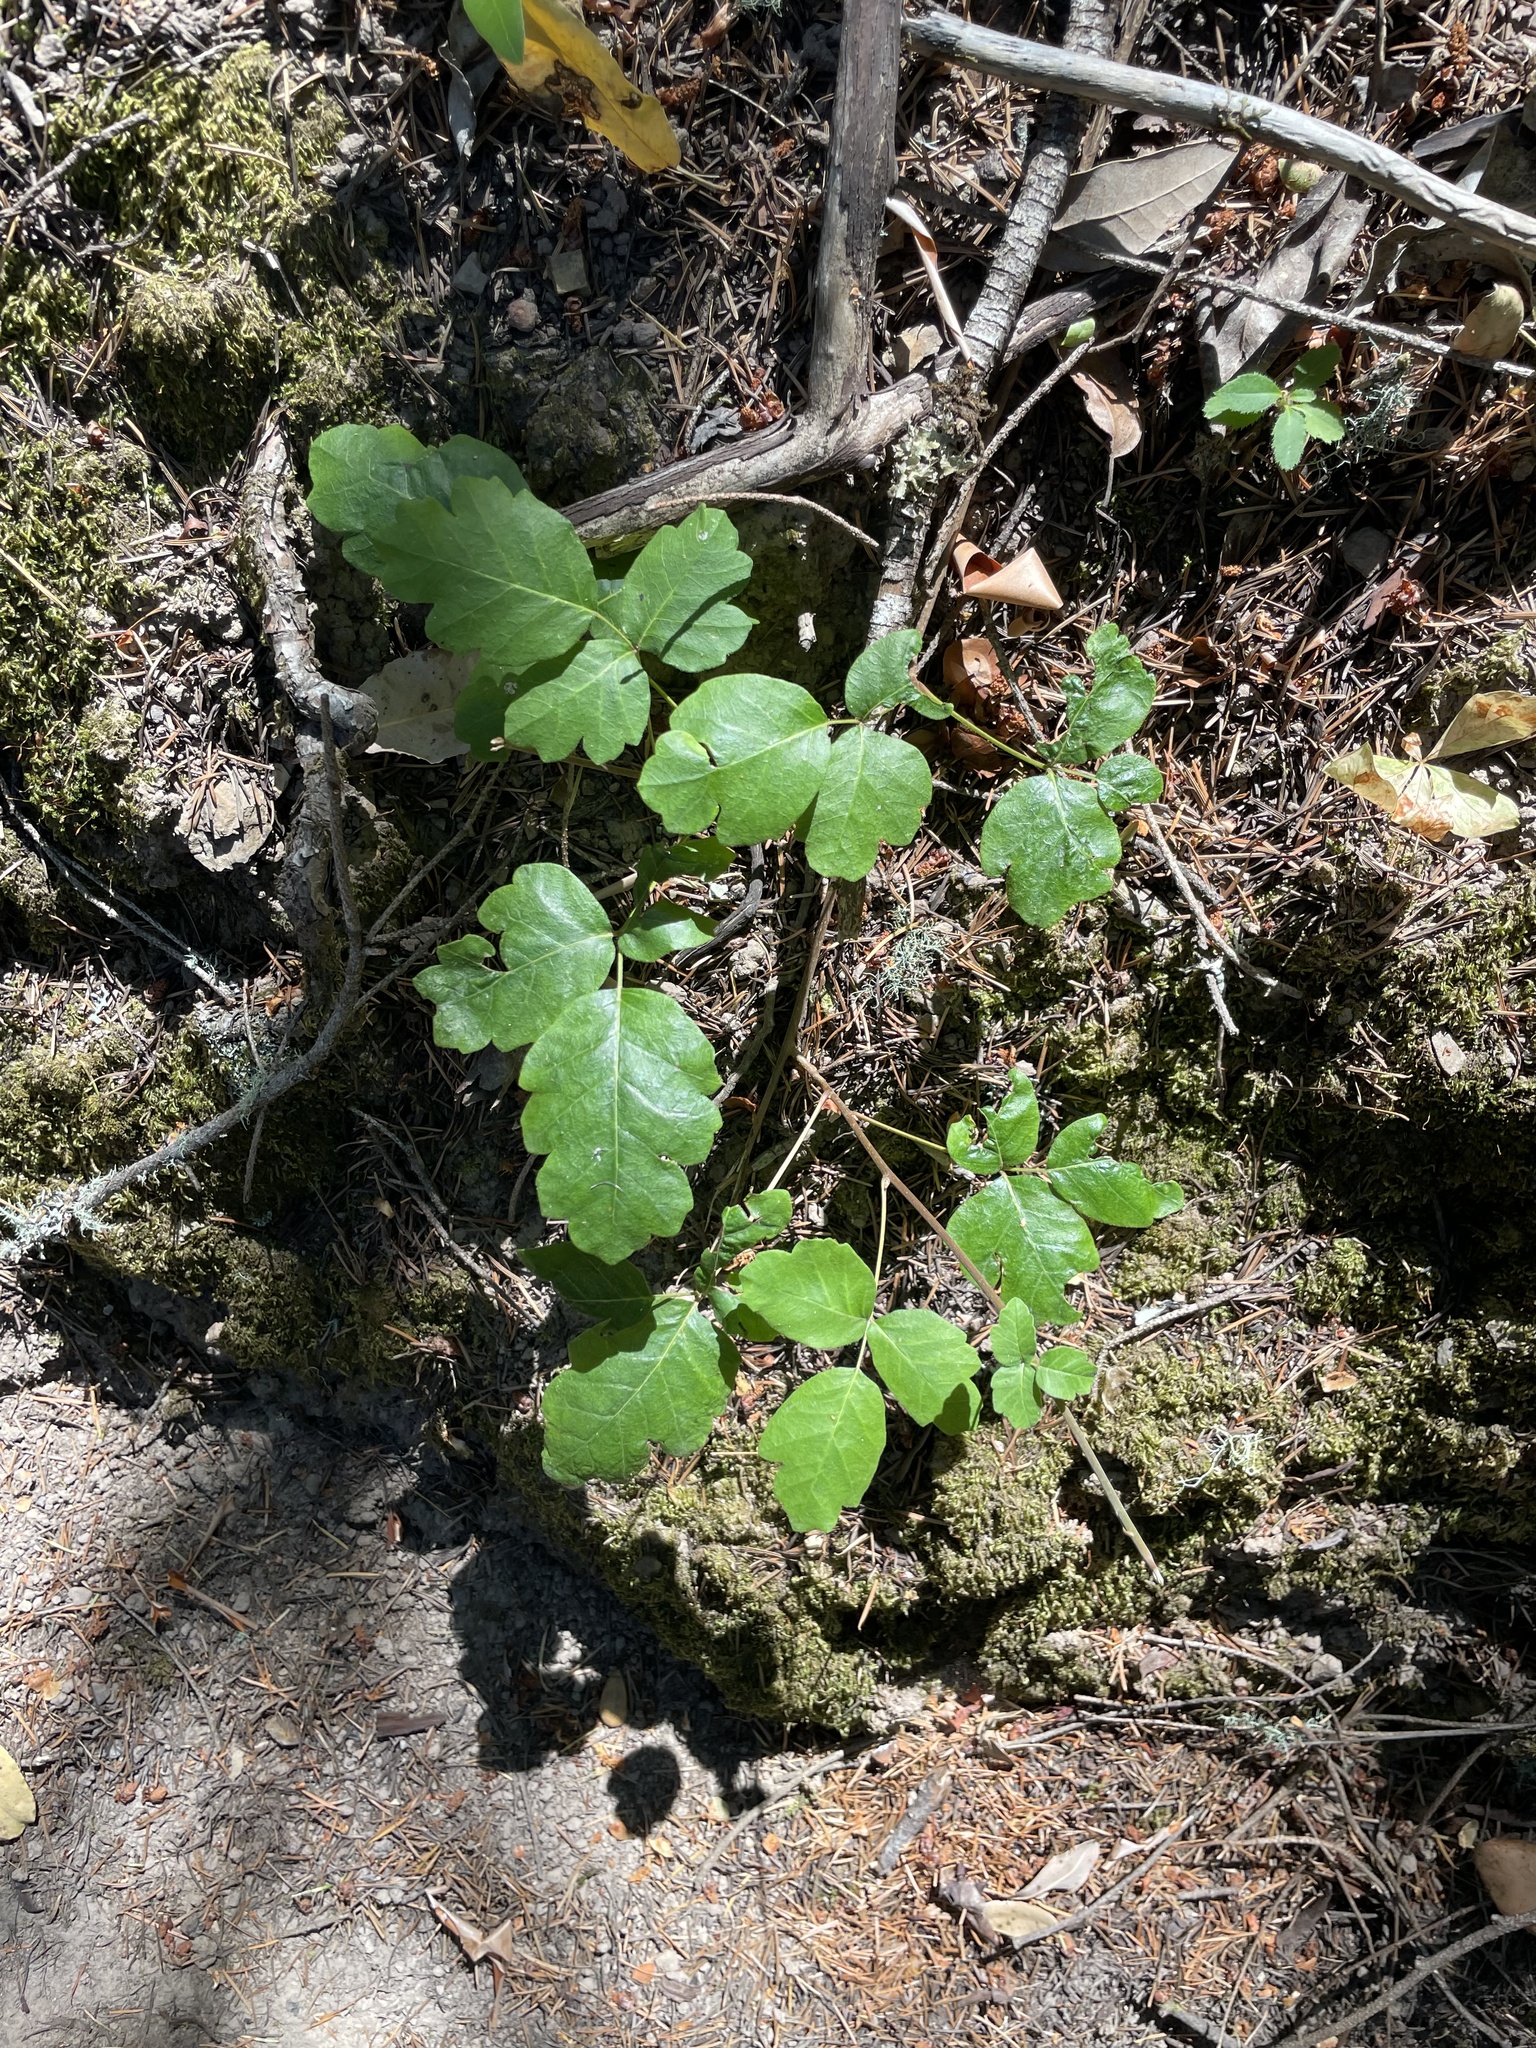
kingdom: Plantae
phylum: Tracheophyta
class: Magnoliopsida
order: Sapindales
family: Anacardiaceae
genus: Toxicodendron
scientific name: Toxicodendron diversilobum
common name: Pacific poison-oak
